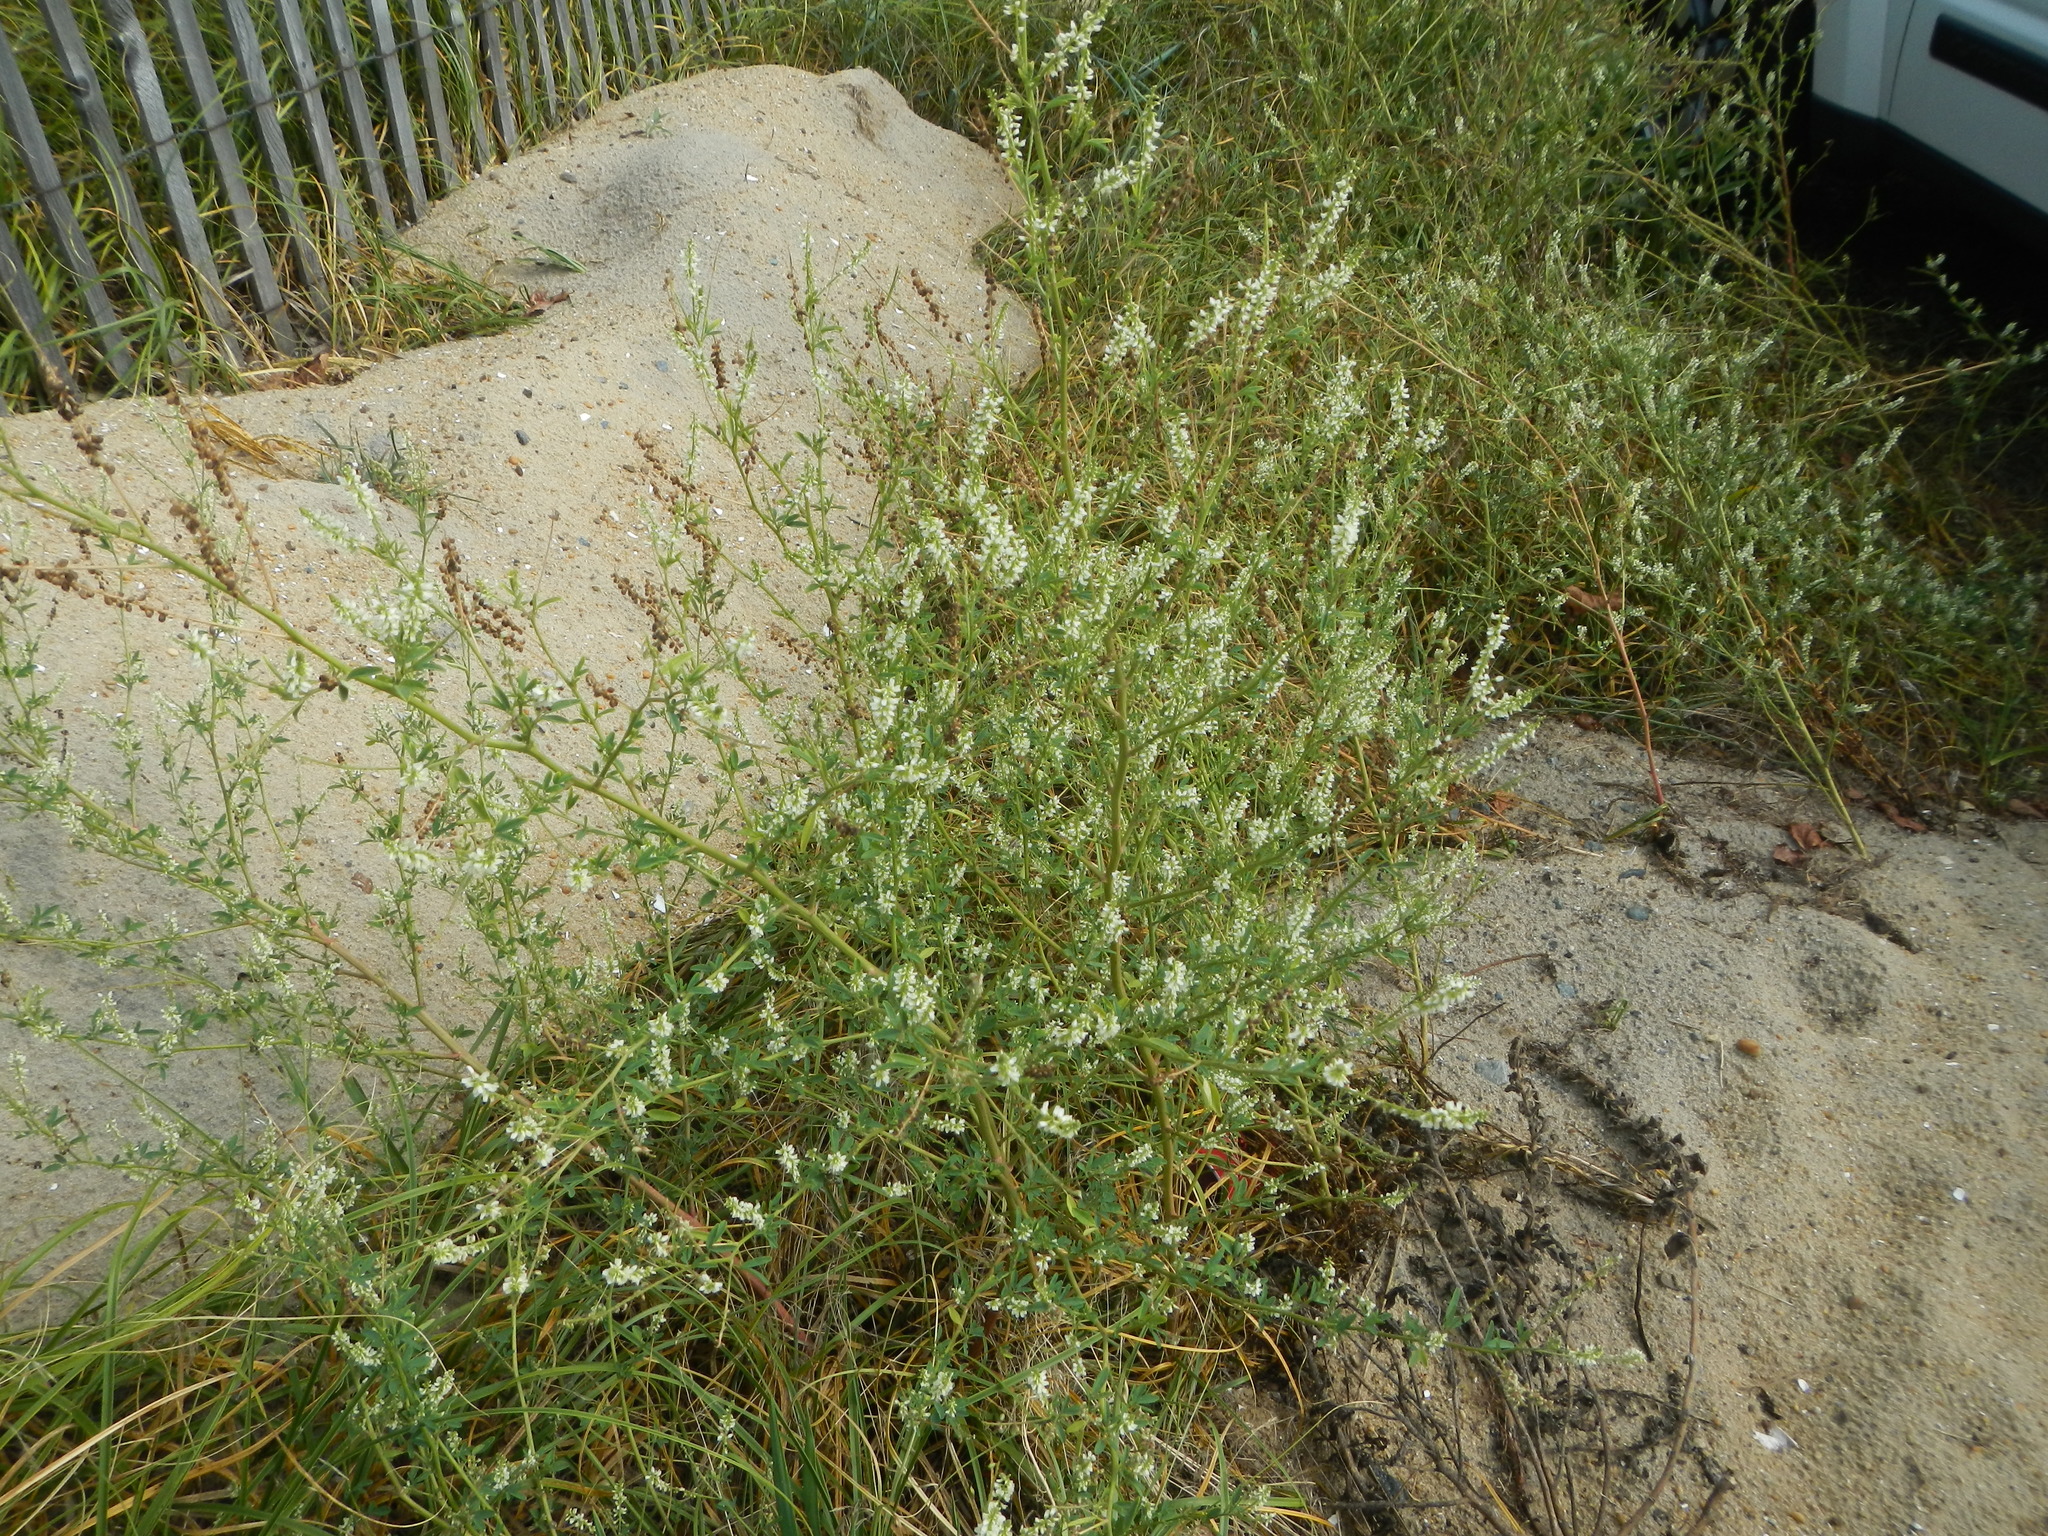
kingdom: Plantae
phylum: Tracheophyta
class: Magnoliopsida
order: Fabales
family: Fabaceae
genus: Melilotus
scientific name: Melilotus albus
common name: White melilot
